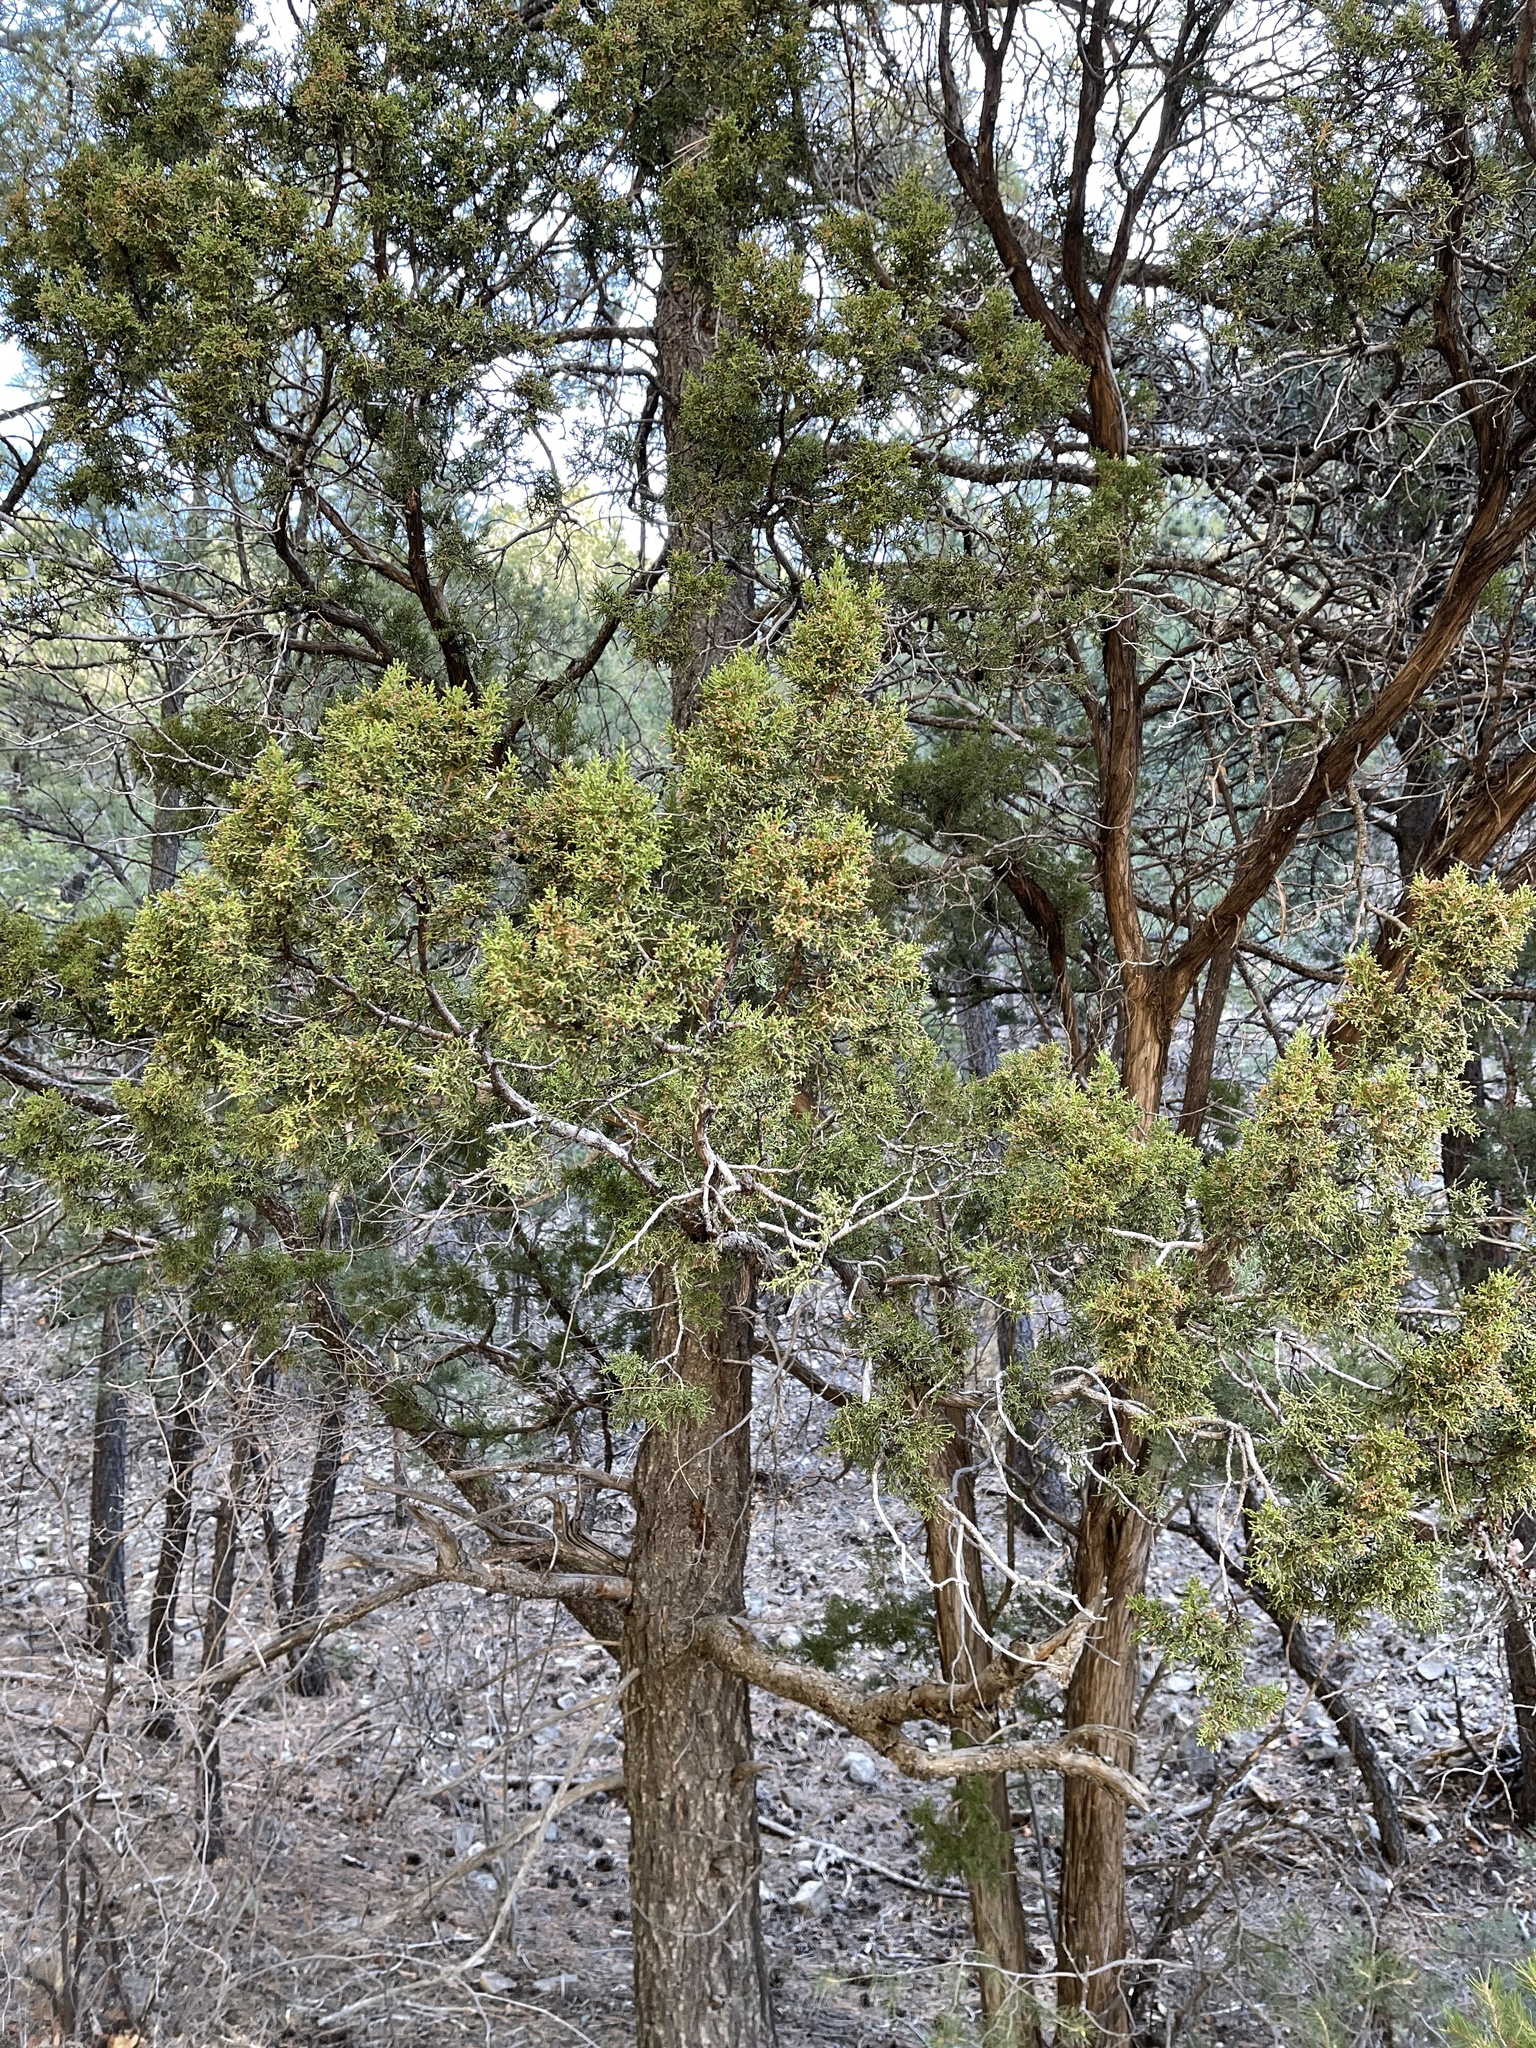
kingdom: Plantae
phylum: Tracheophyta
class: Pinopsida
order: Pinales
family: Cupressaceae
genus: Juniperus
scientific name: Juniperus monosperma
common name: One-seed juniper
